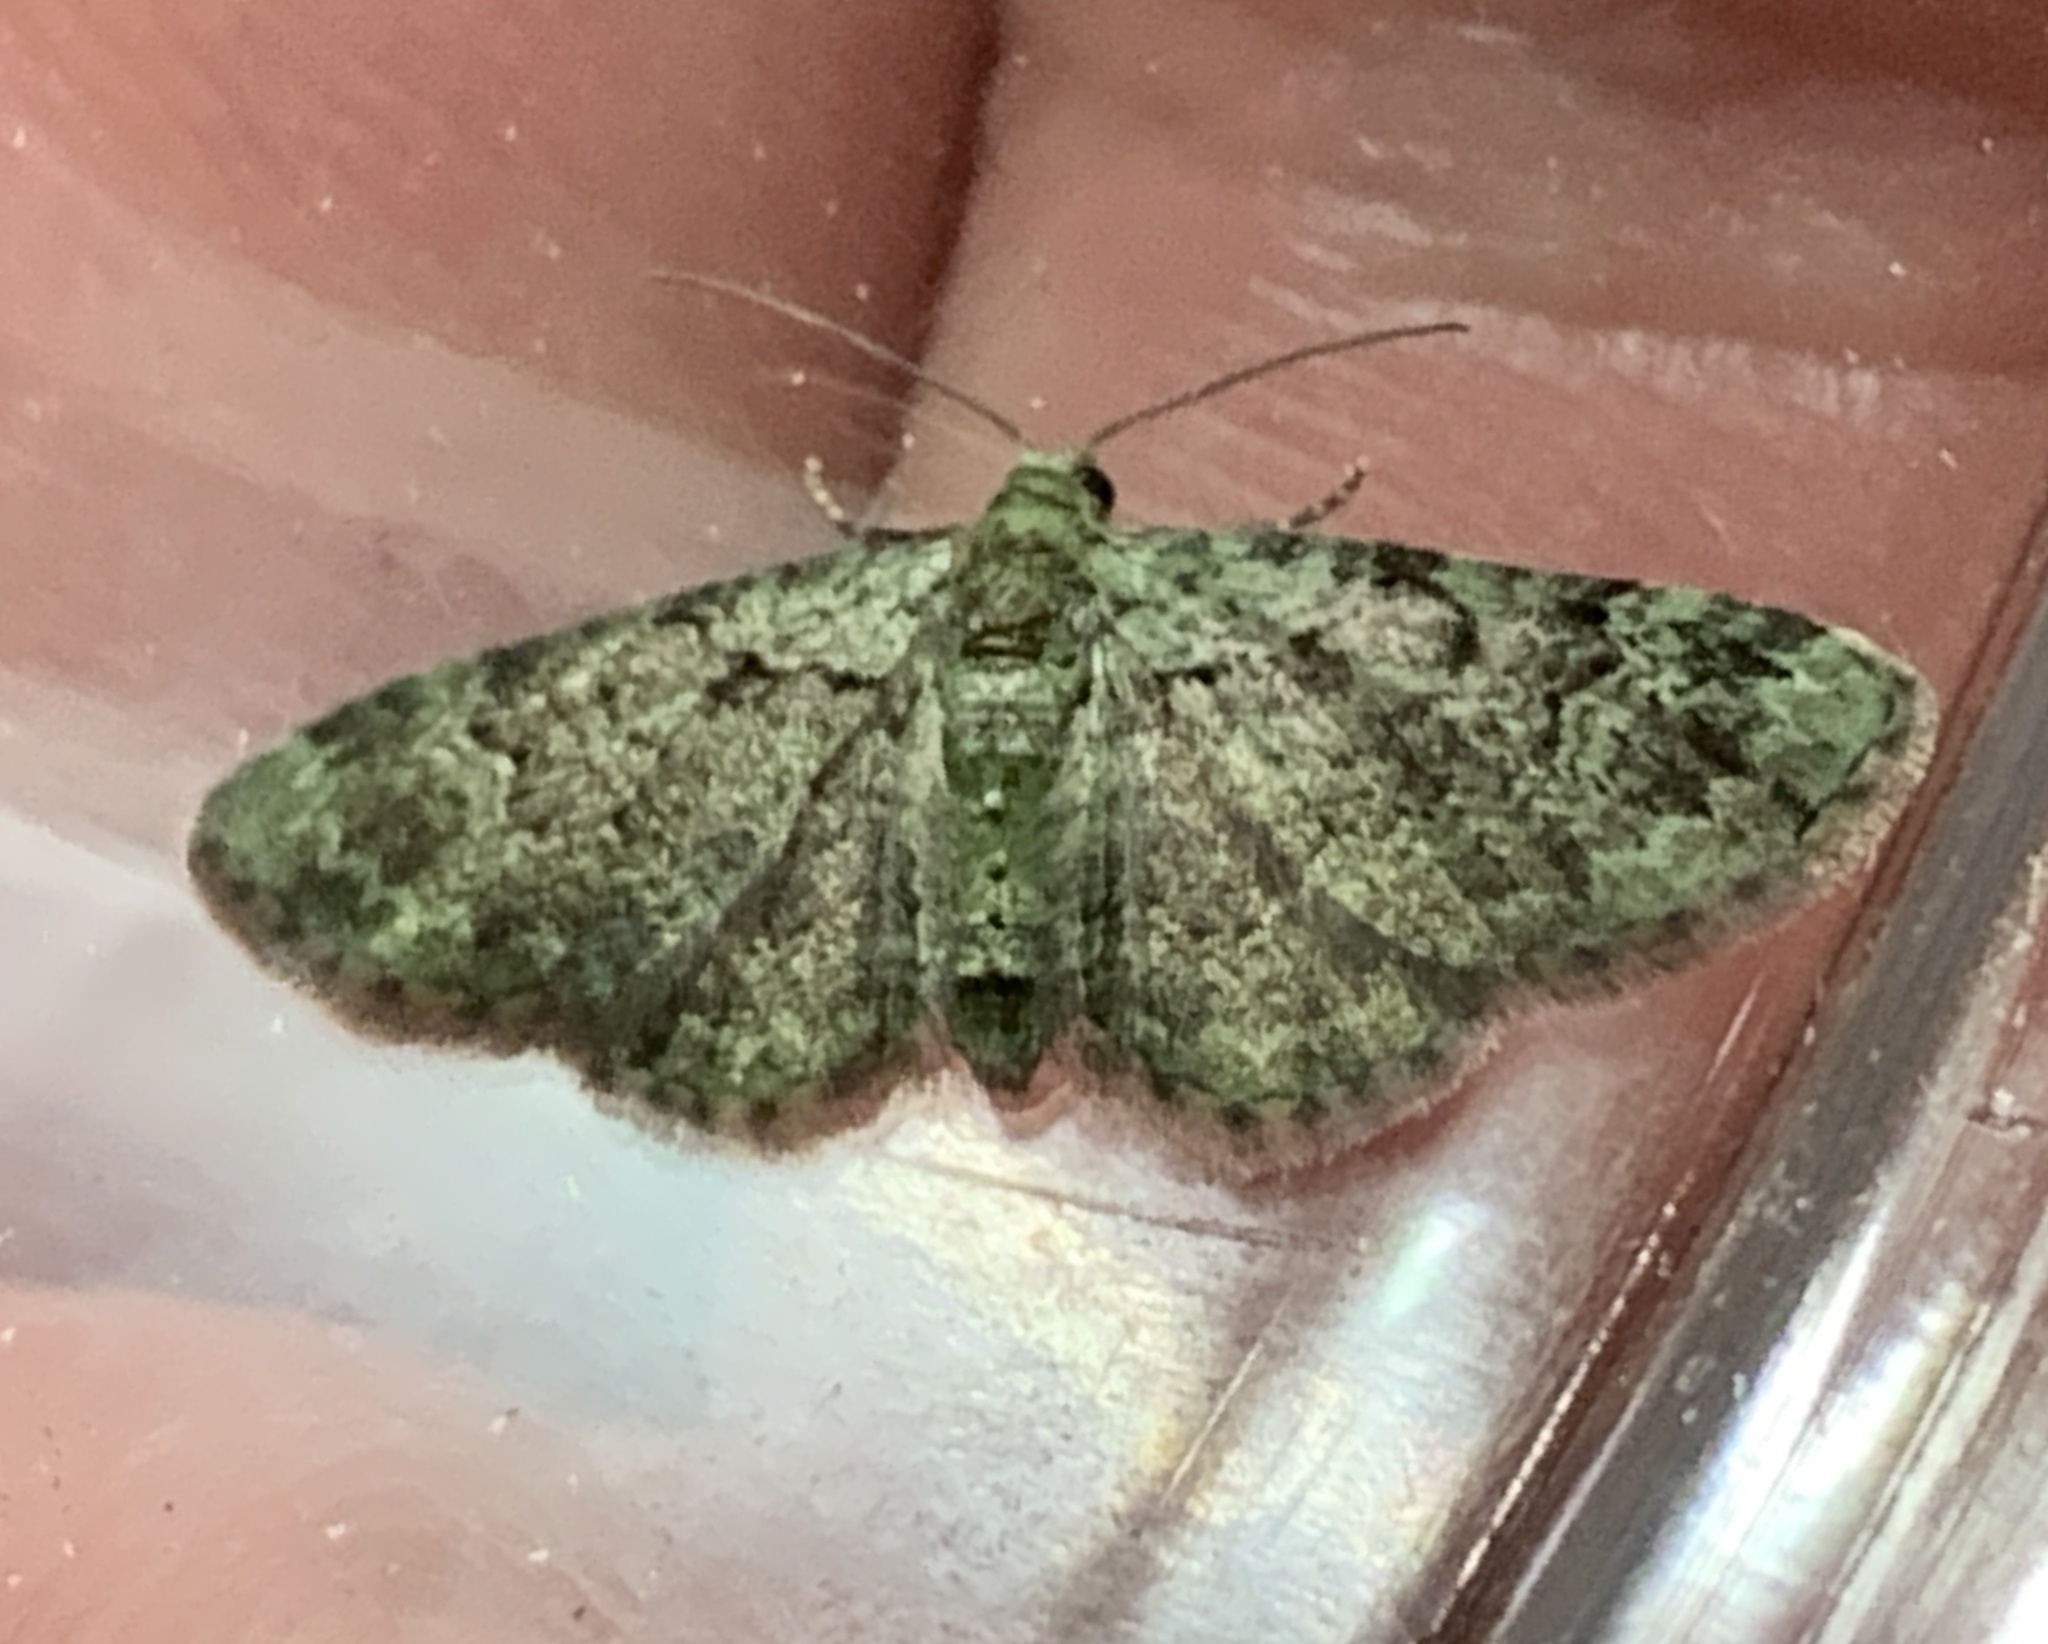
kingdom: Animalia
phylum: Arthropoda
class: Insecta
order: Lepidoptera
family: Geometridae
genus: Pasiphila
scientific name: Pasiphila rectangulata
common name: Green pug
